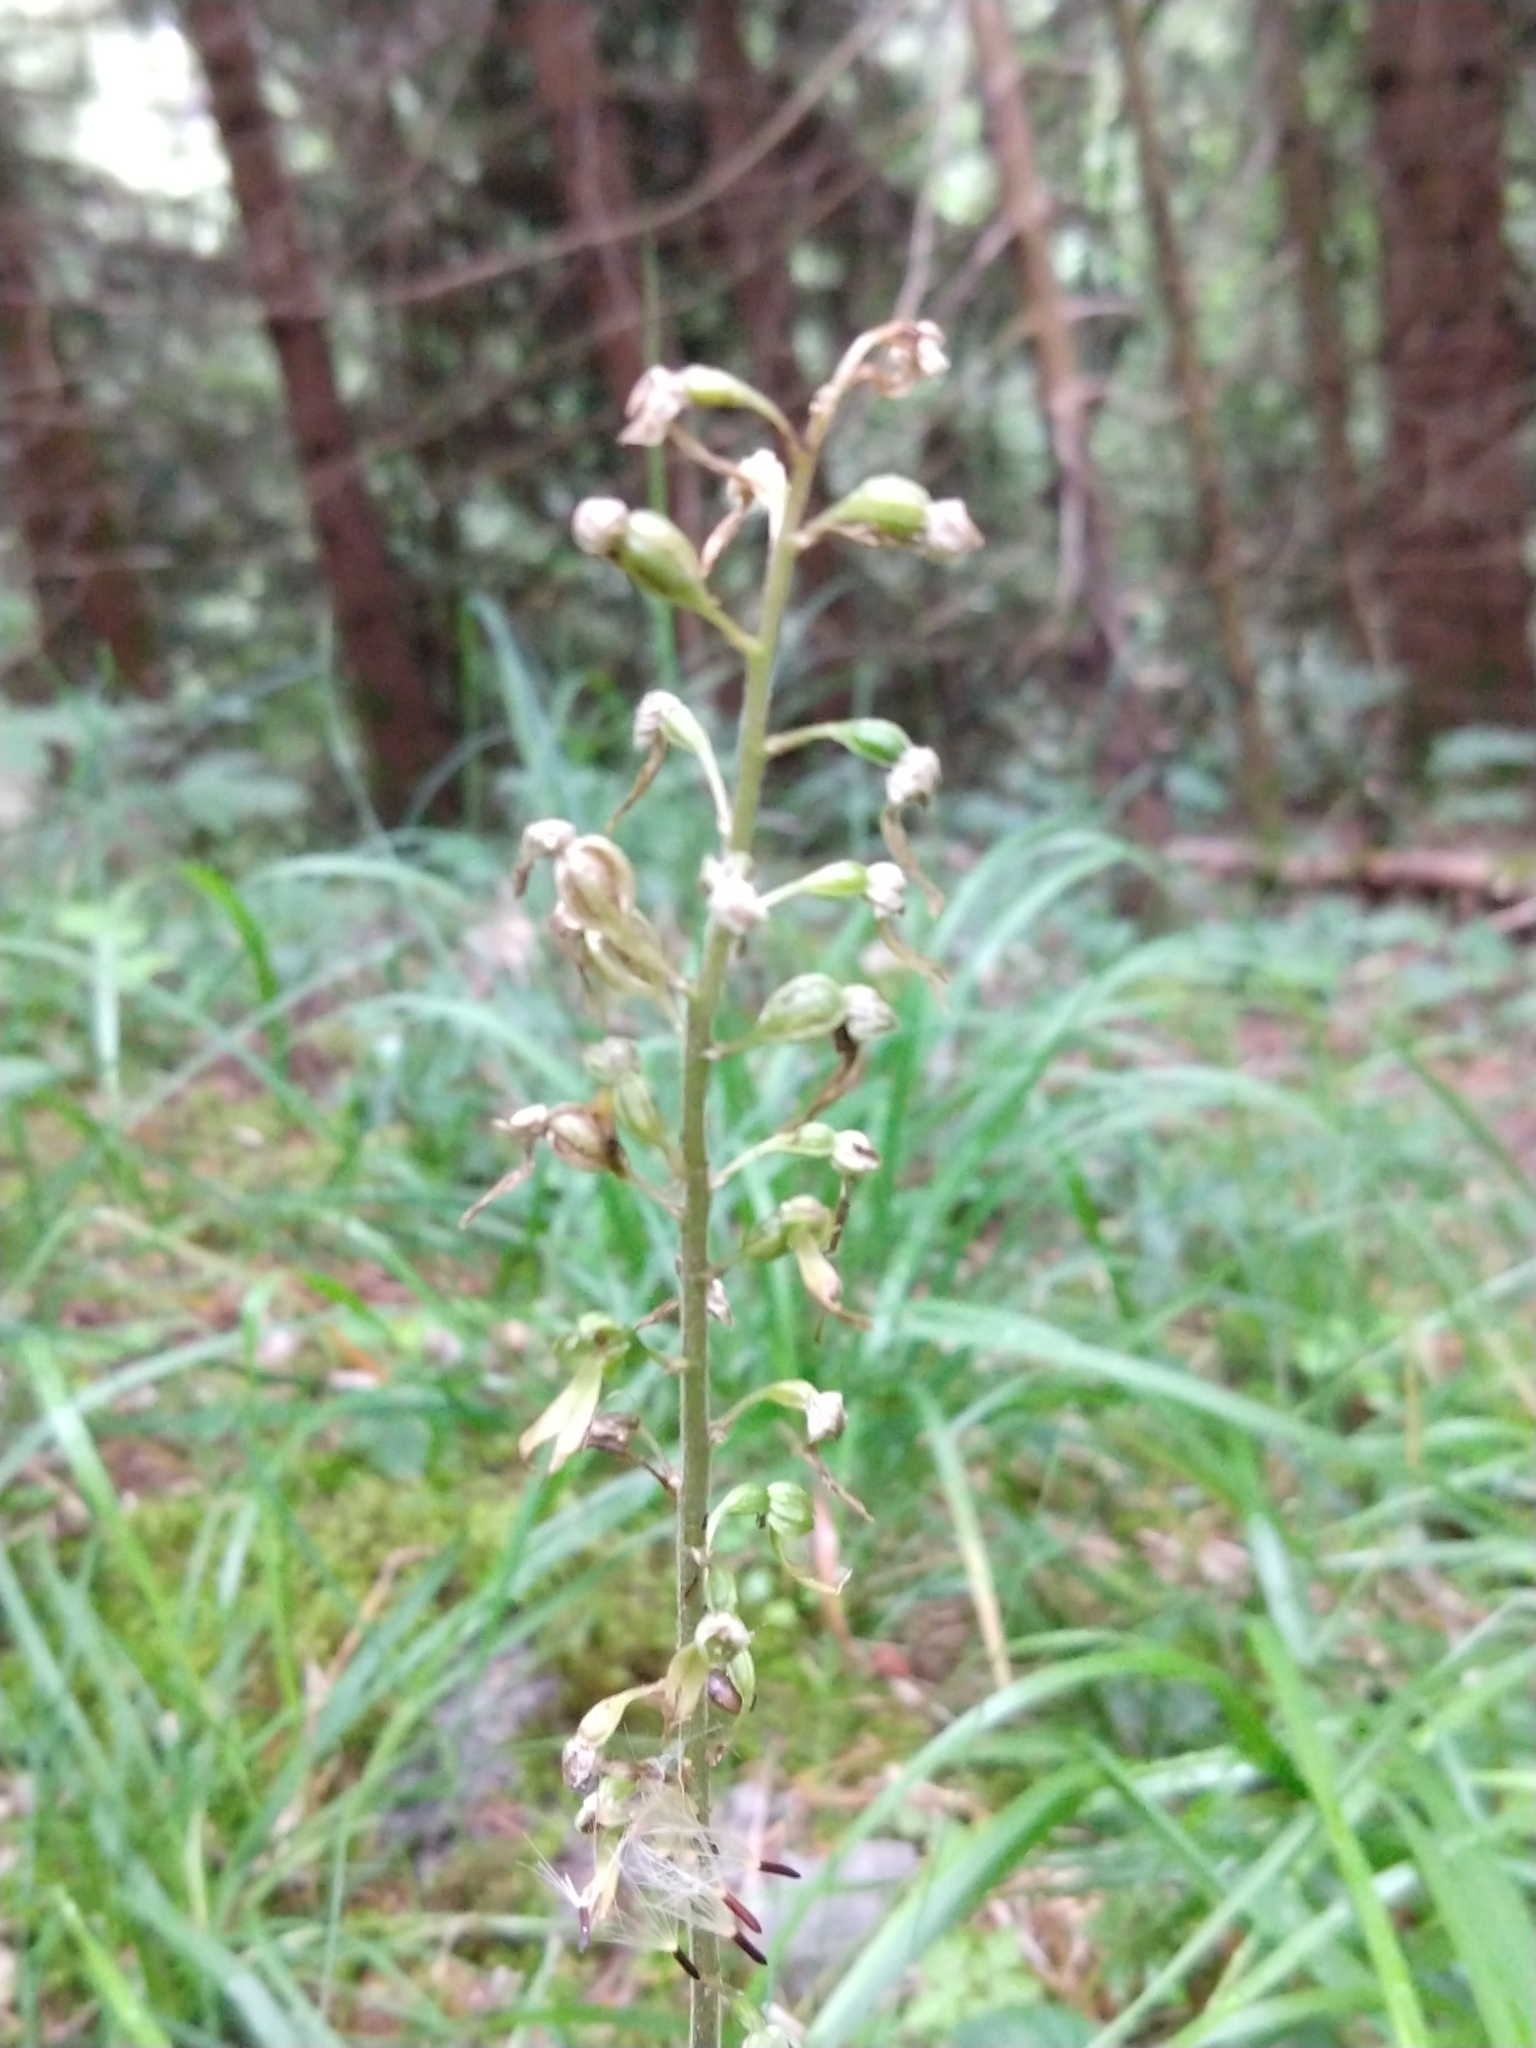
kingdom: Plantae
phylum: Tracheophyta
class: Liliopsida
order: Asparagales
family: Orchidaceae
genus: Neottia
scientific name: Neottia ovata
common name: Common twayblade
